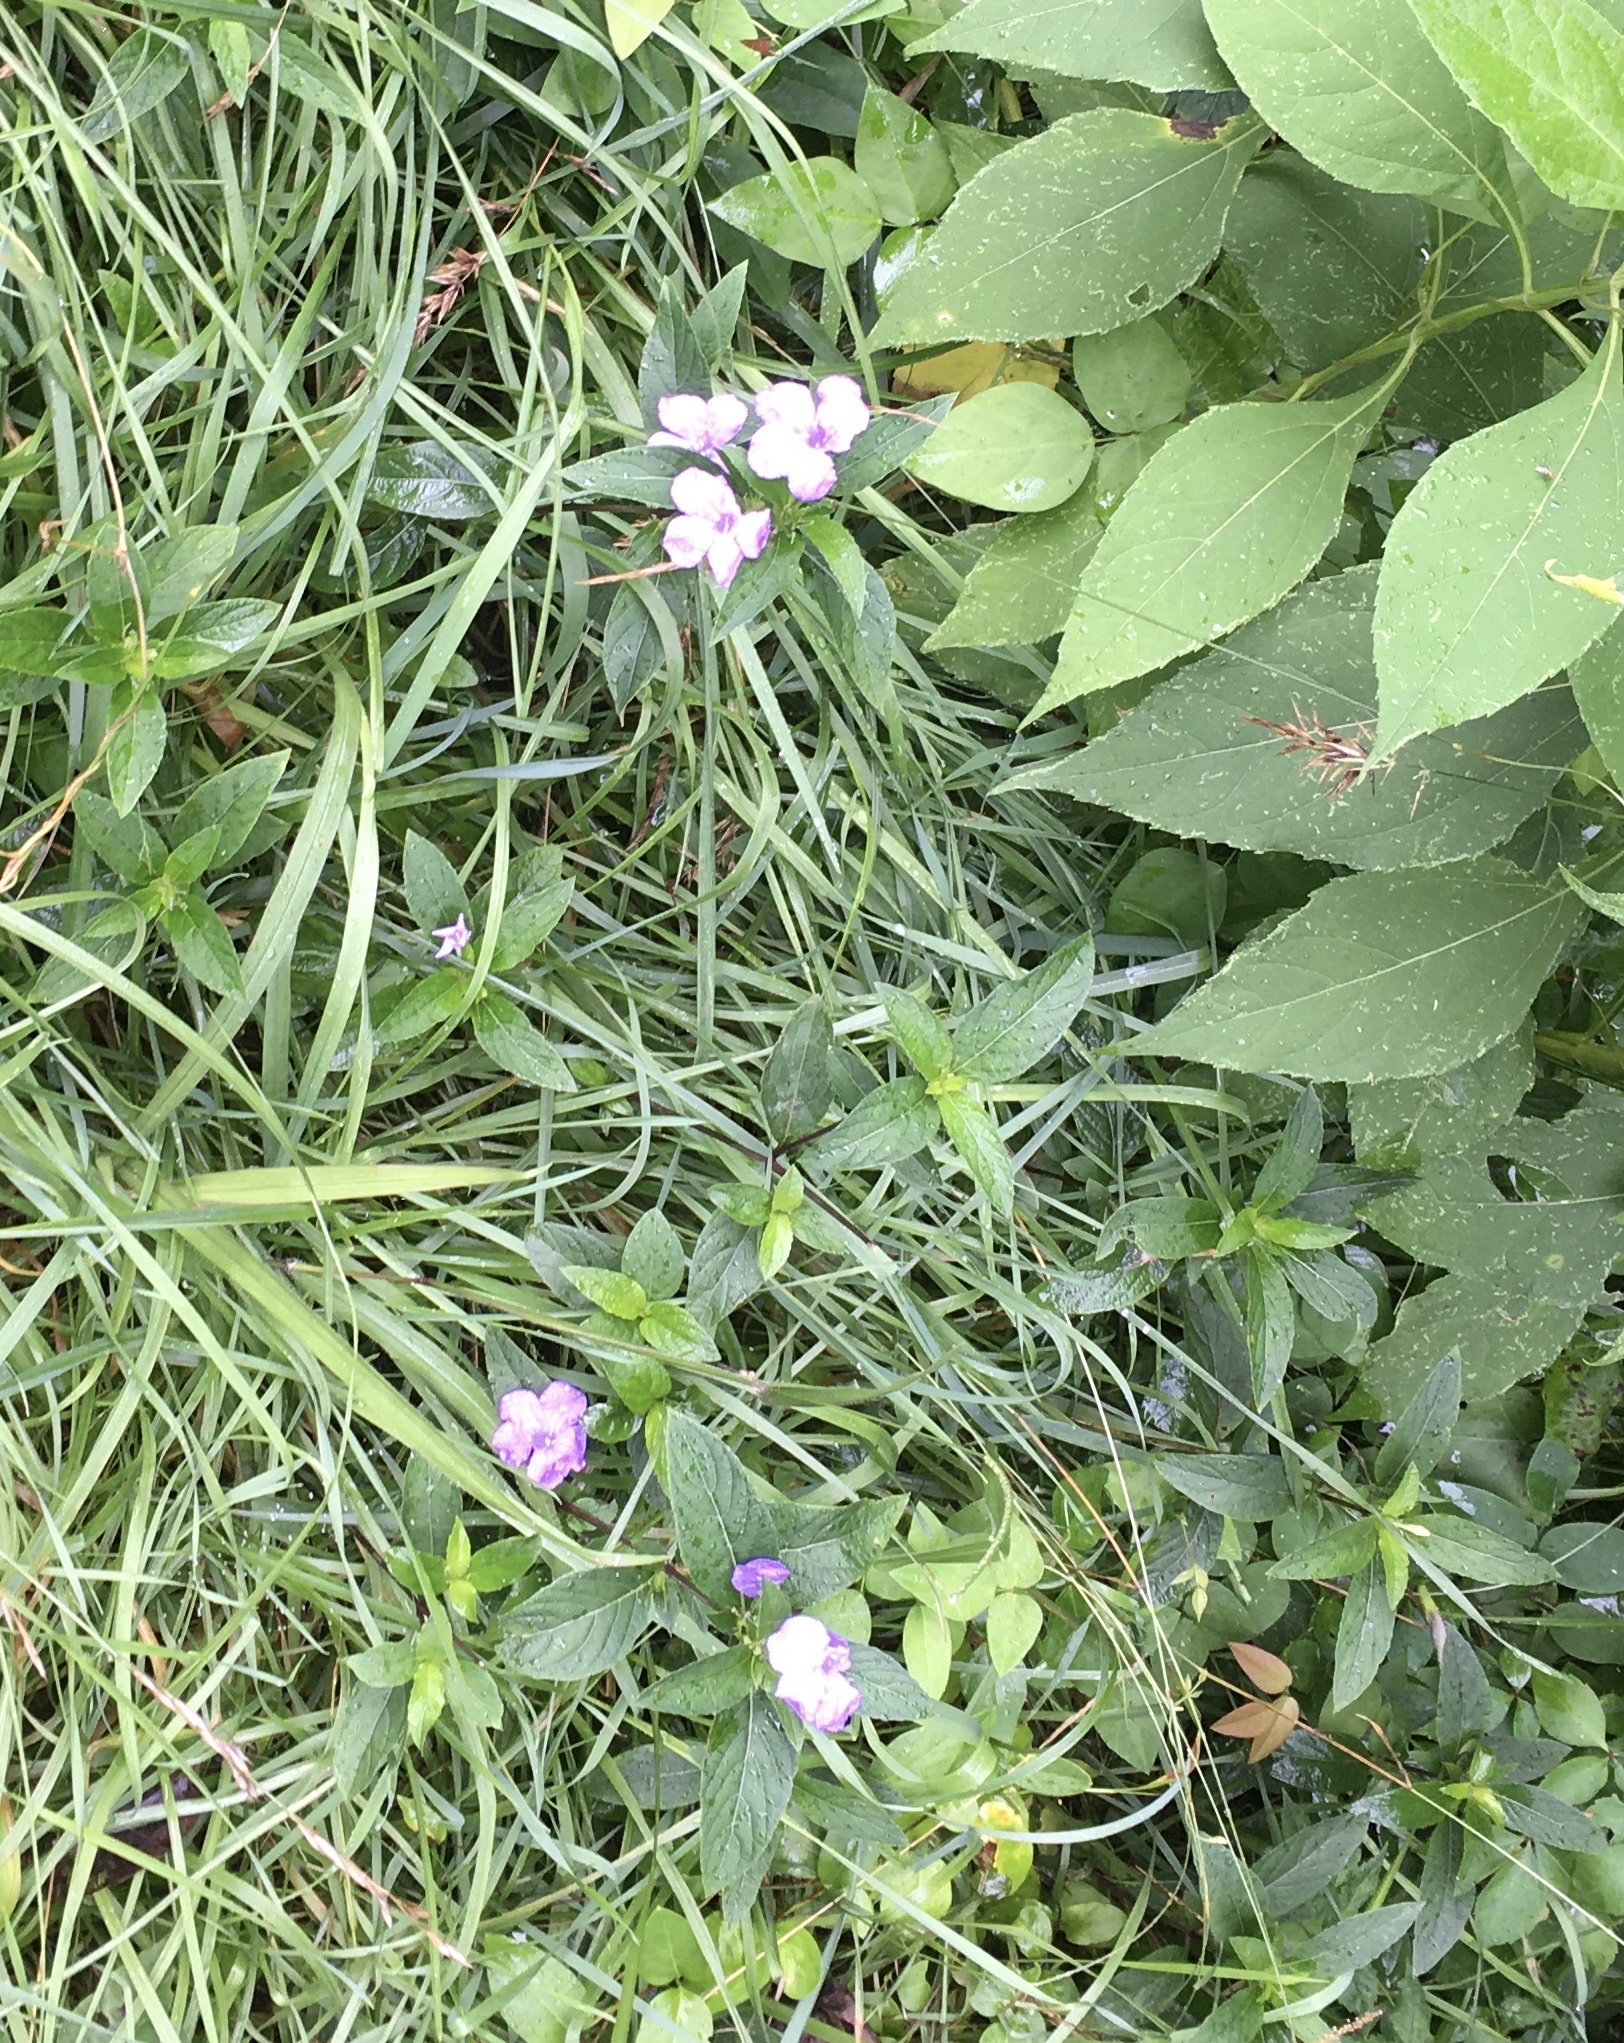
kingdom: Plantae
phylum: Tracheophyta
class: Magnoliopsida
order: Lamiales
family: Acanthaceae
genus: Ruellia
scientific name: Ruellia caroliniensis
